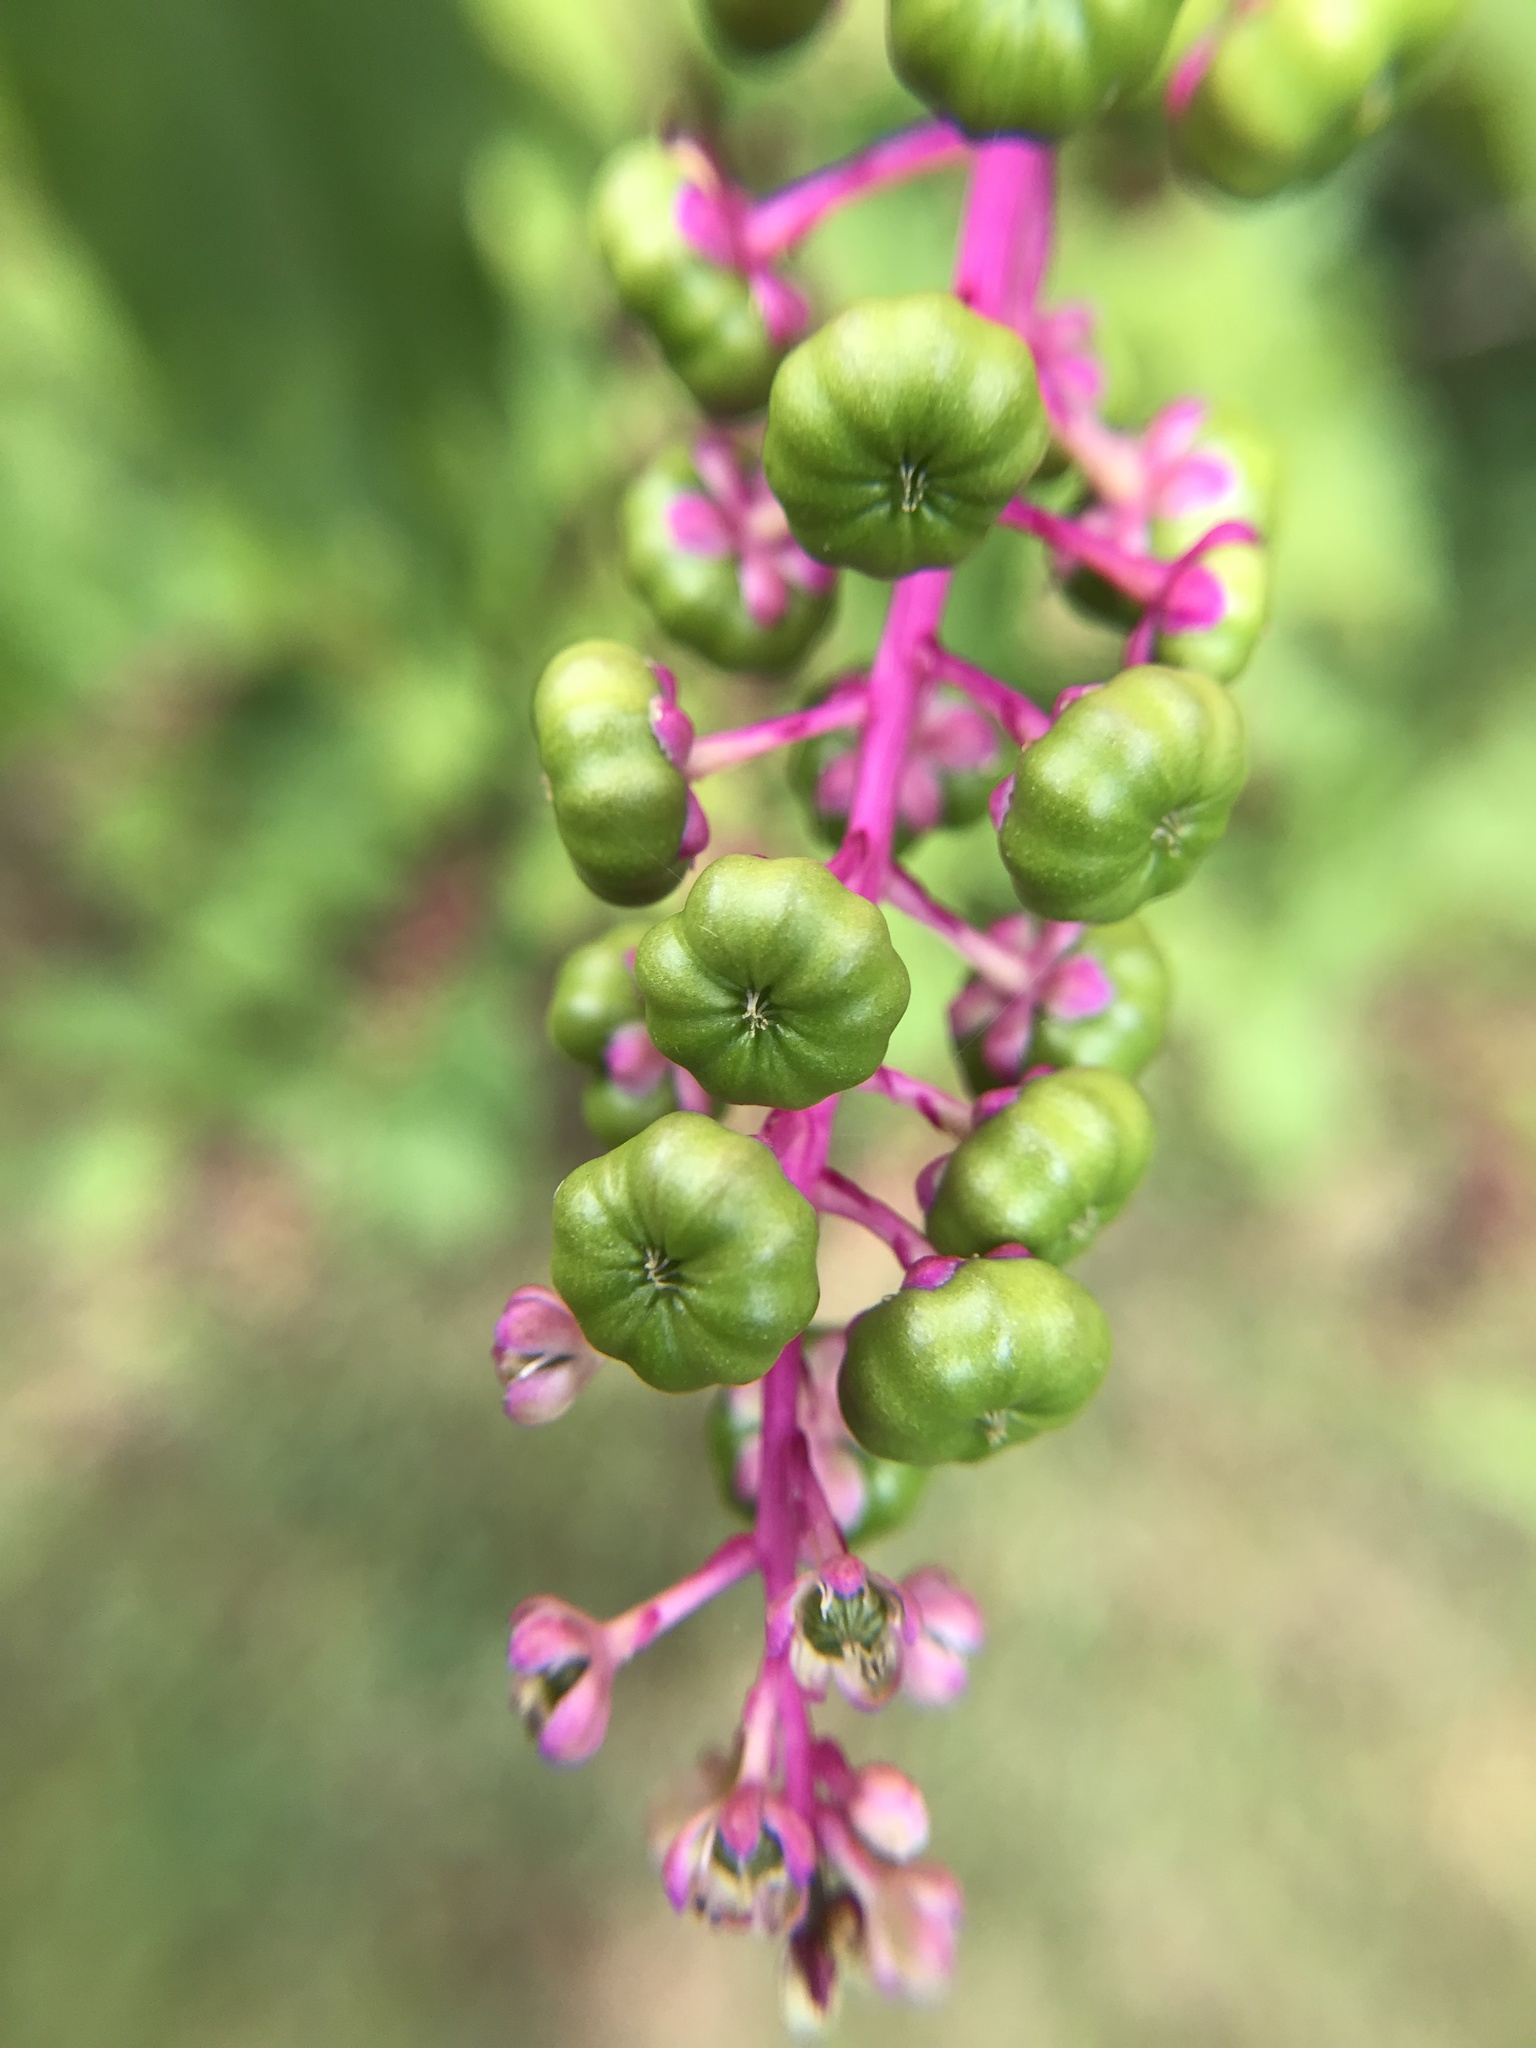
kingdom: Plantae
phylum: Tracheophyta
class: Magnoliopsida
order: Caryophyllales
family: Phytolaccaceae
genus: Phytolacca
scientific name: Phytolacca americana
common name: American pokeweed
